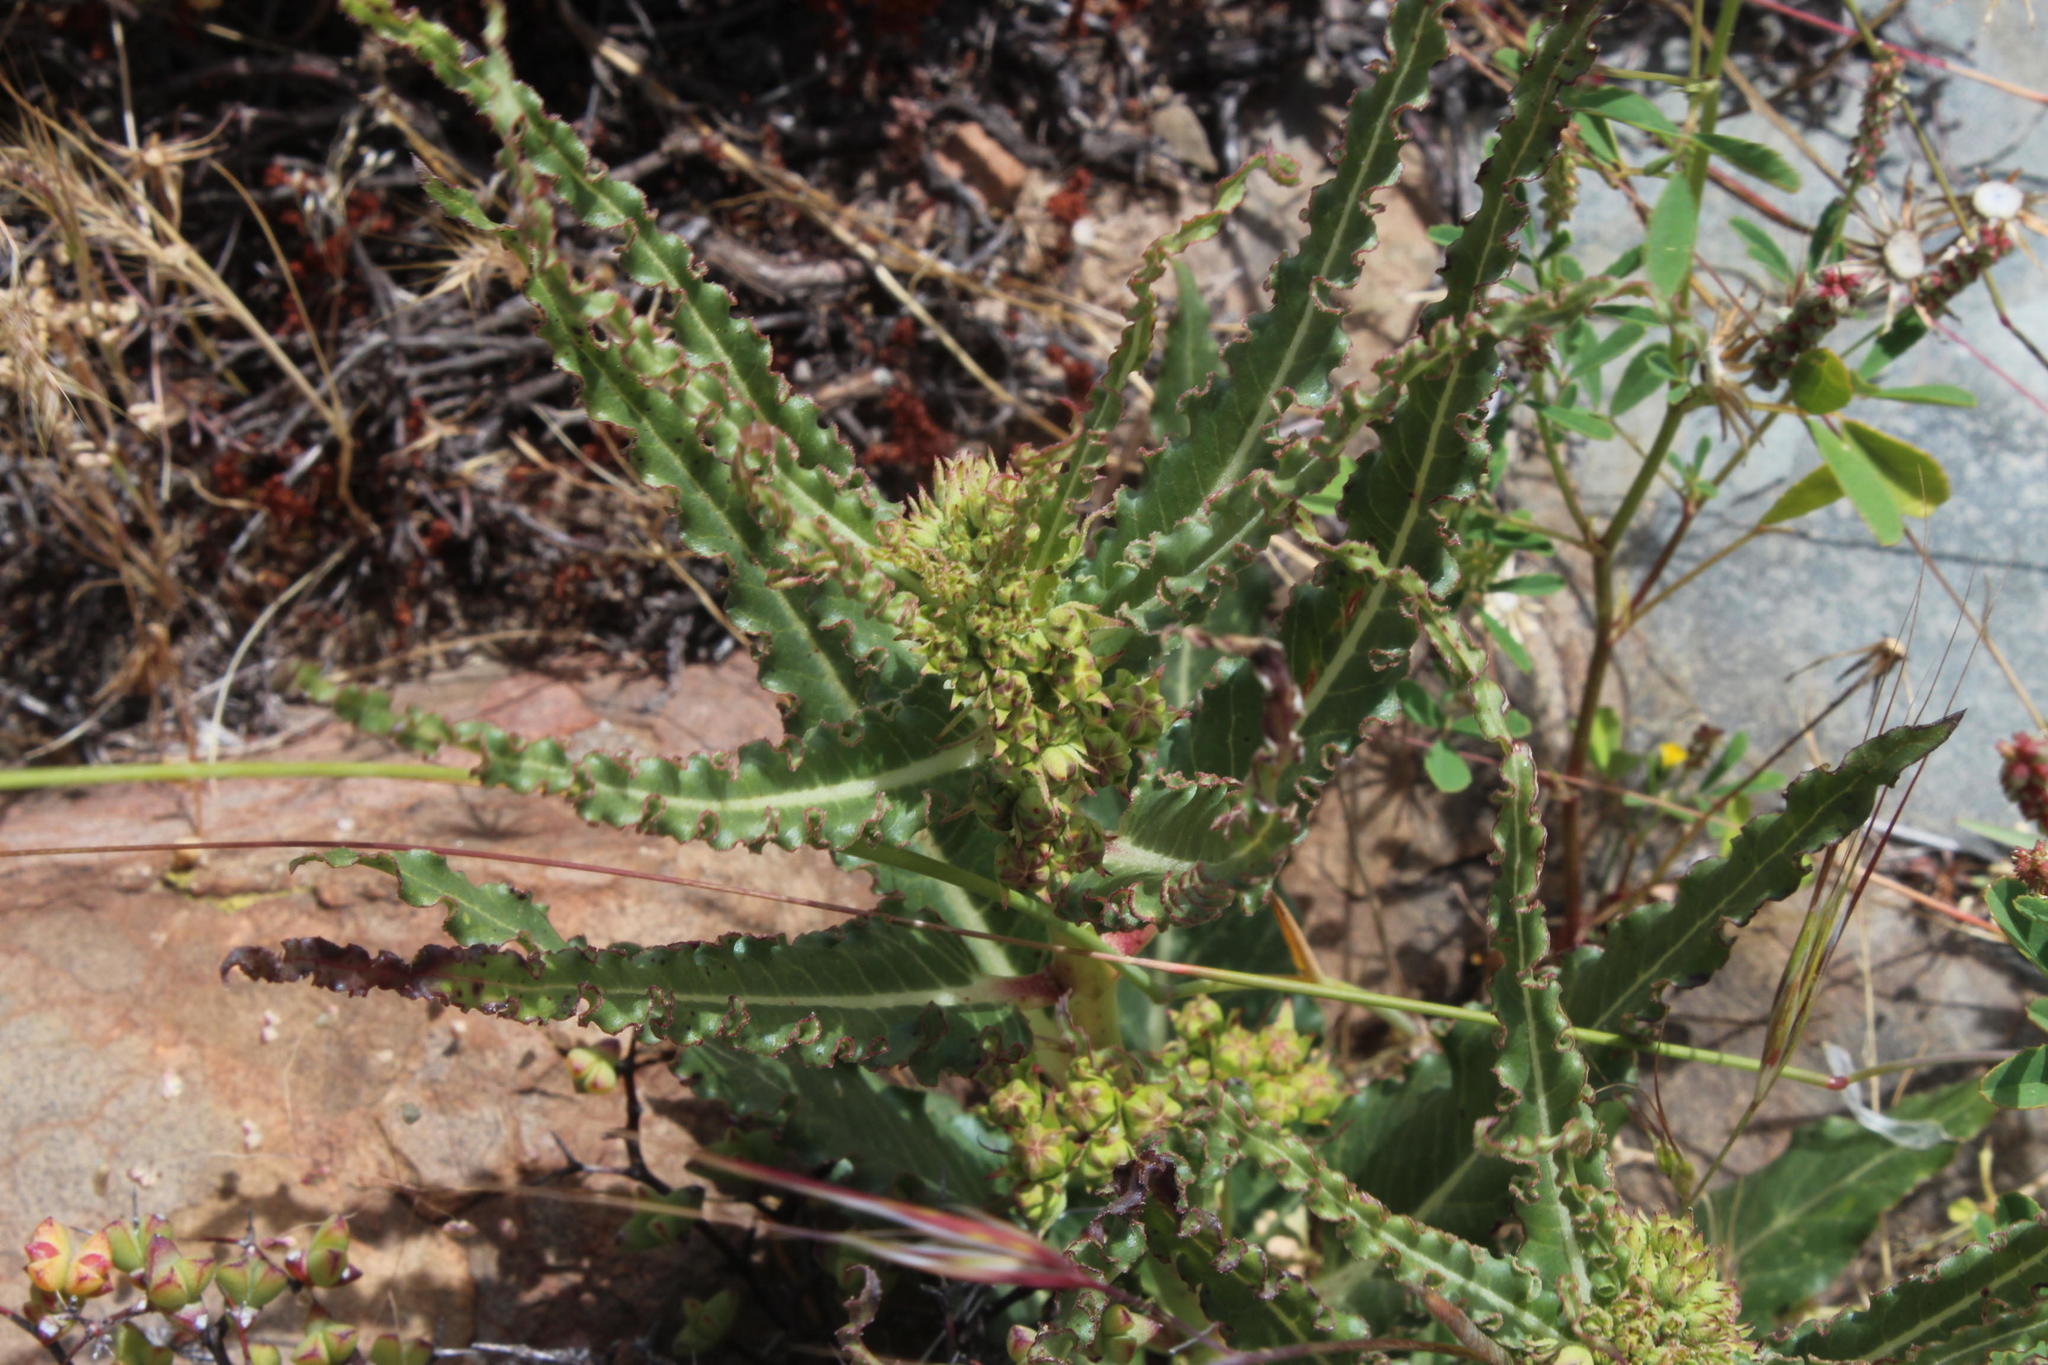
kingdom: Plantae
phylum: Tracheophyta
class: Magnoliopsida
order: Gentianales
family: Apocynaceae
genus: Xysmalobium
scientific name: Xysmalobium gomphocarpoides
